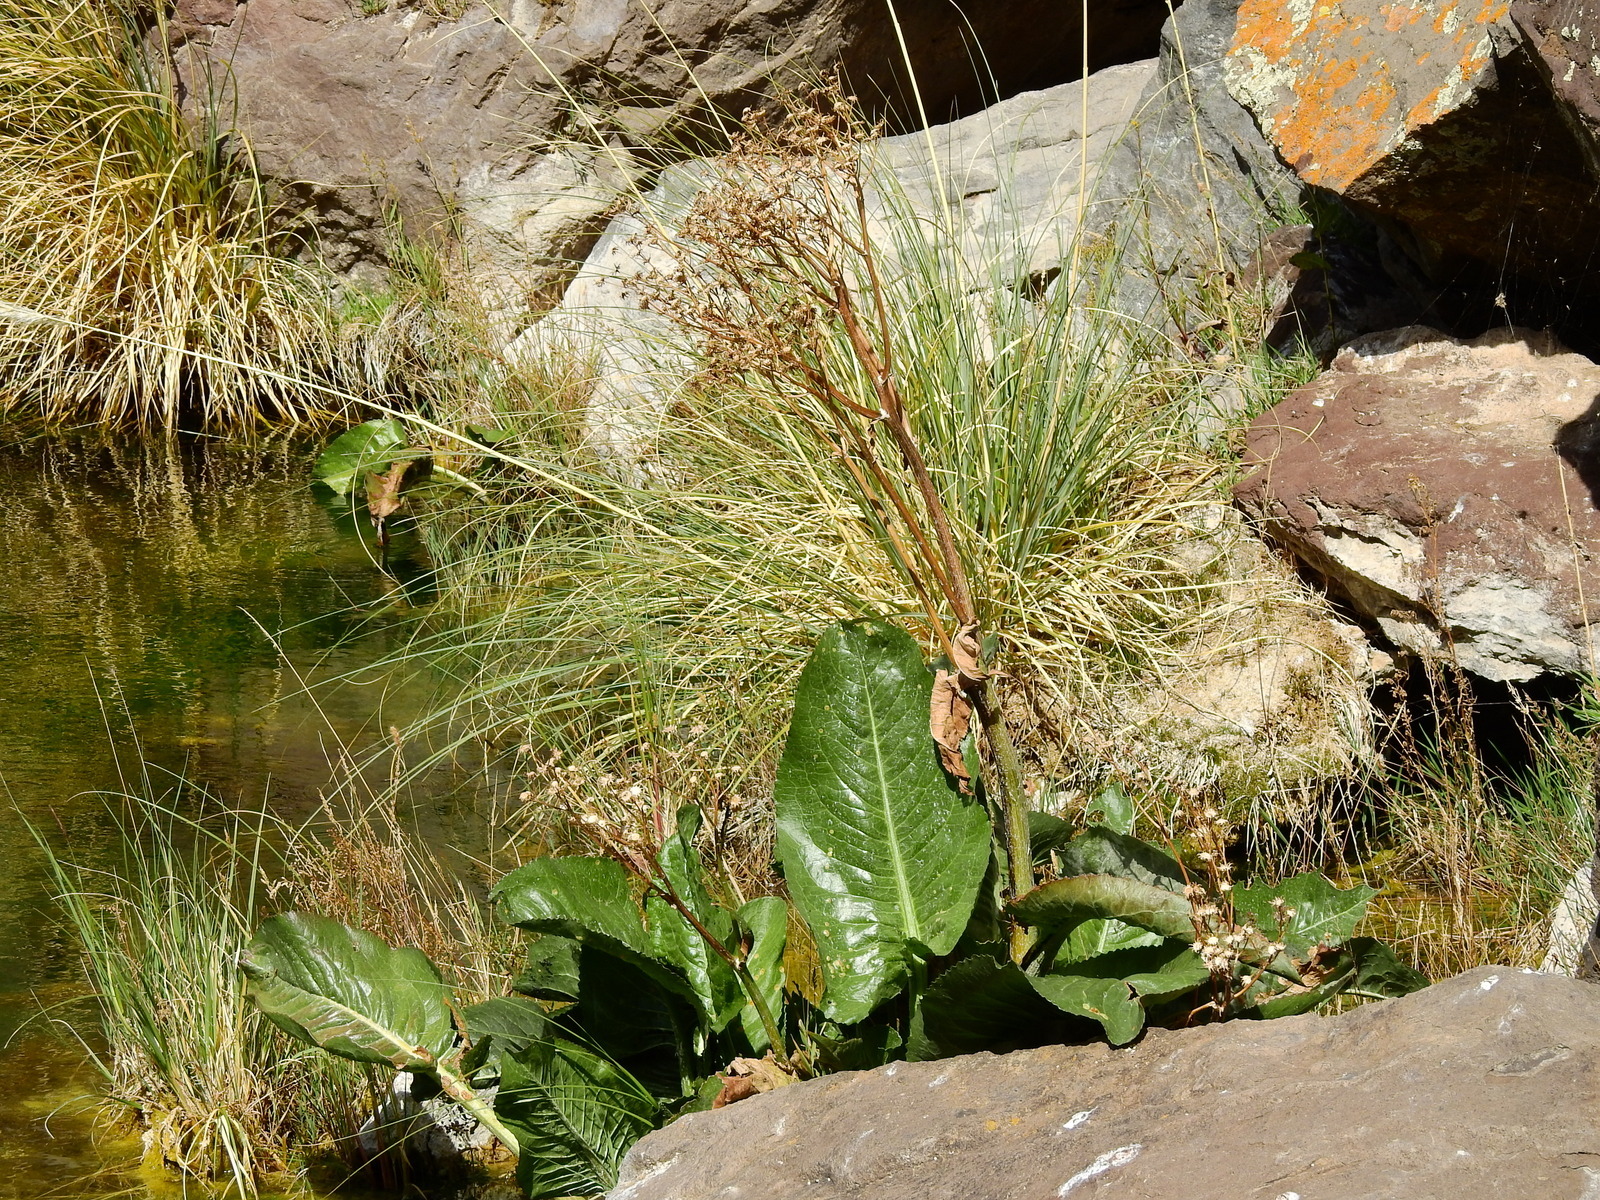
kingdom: Plantae
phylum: Tracheophyta
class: Magnoliopsida
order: Asterales
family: Asteraceae
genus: Senecio
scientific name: Senecio fistulosus
